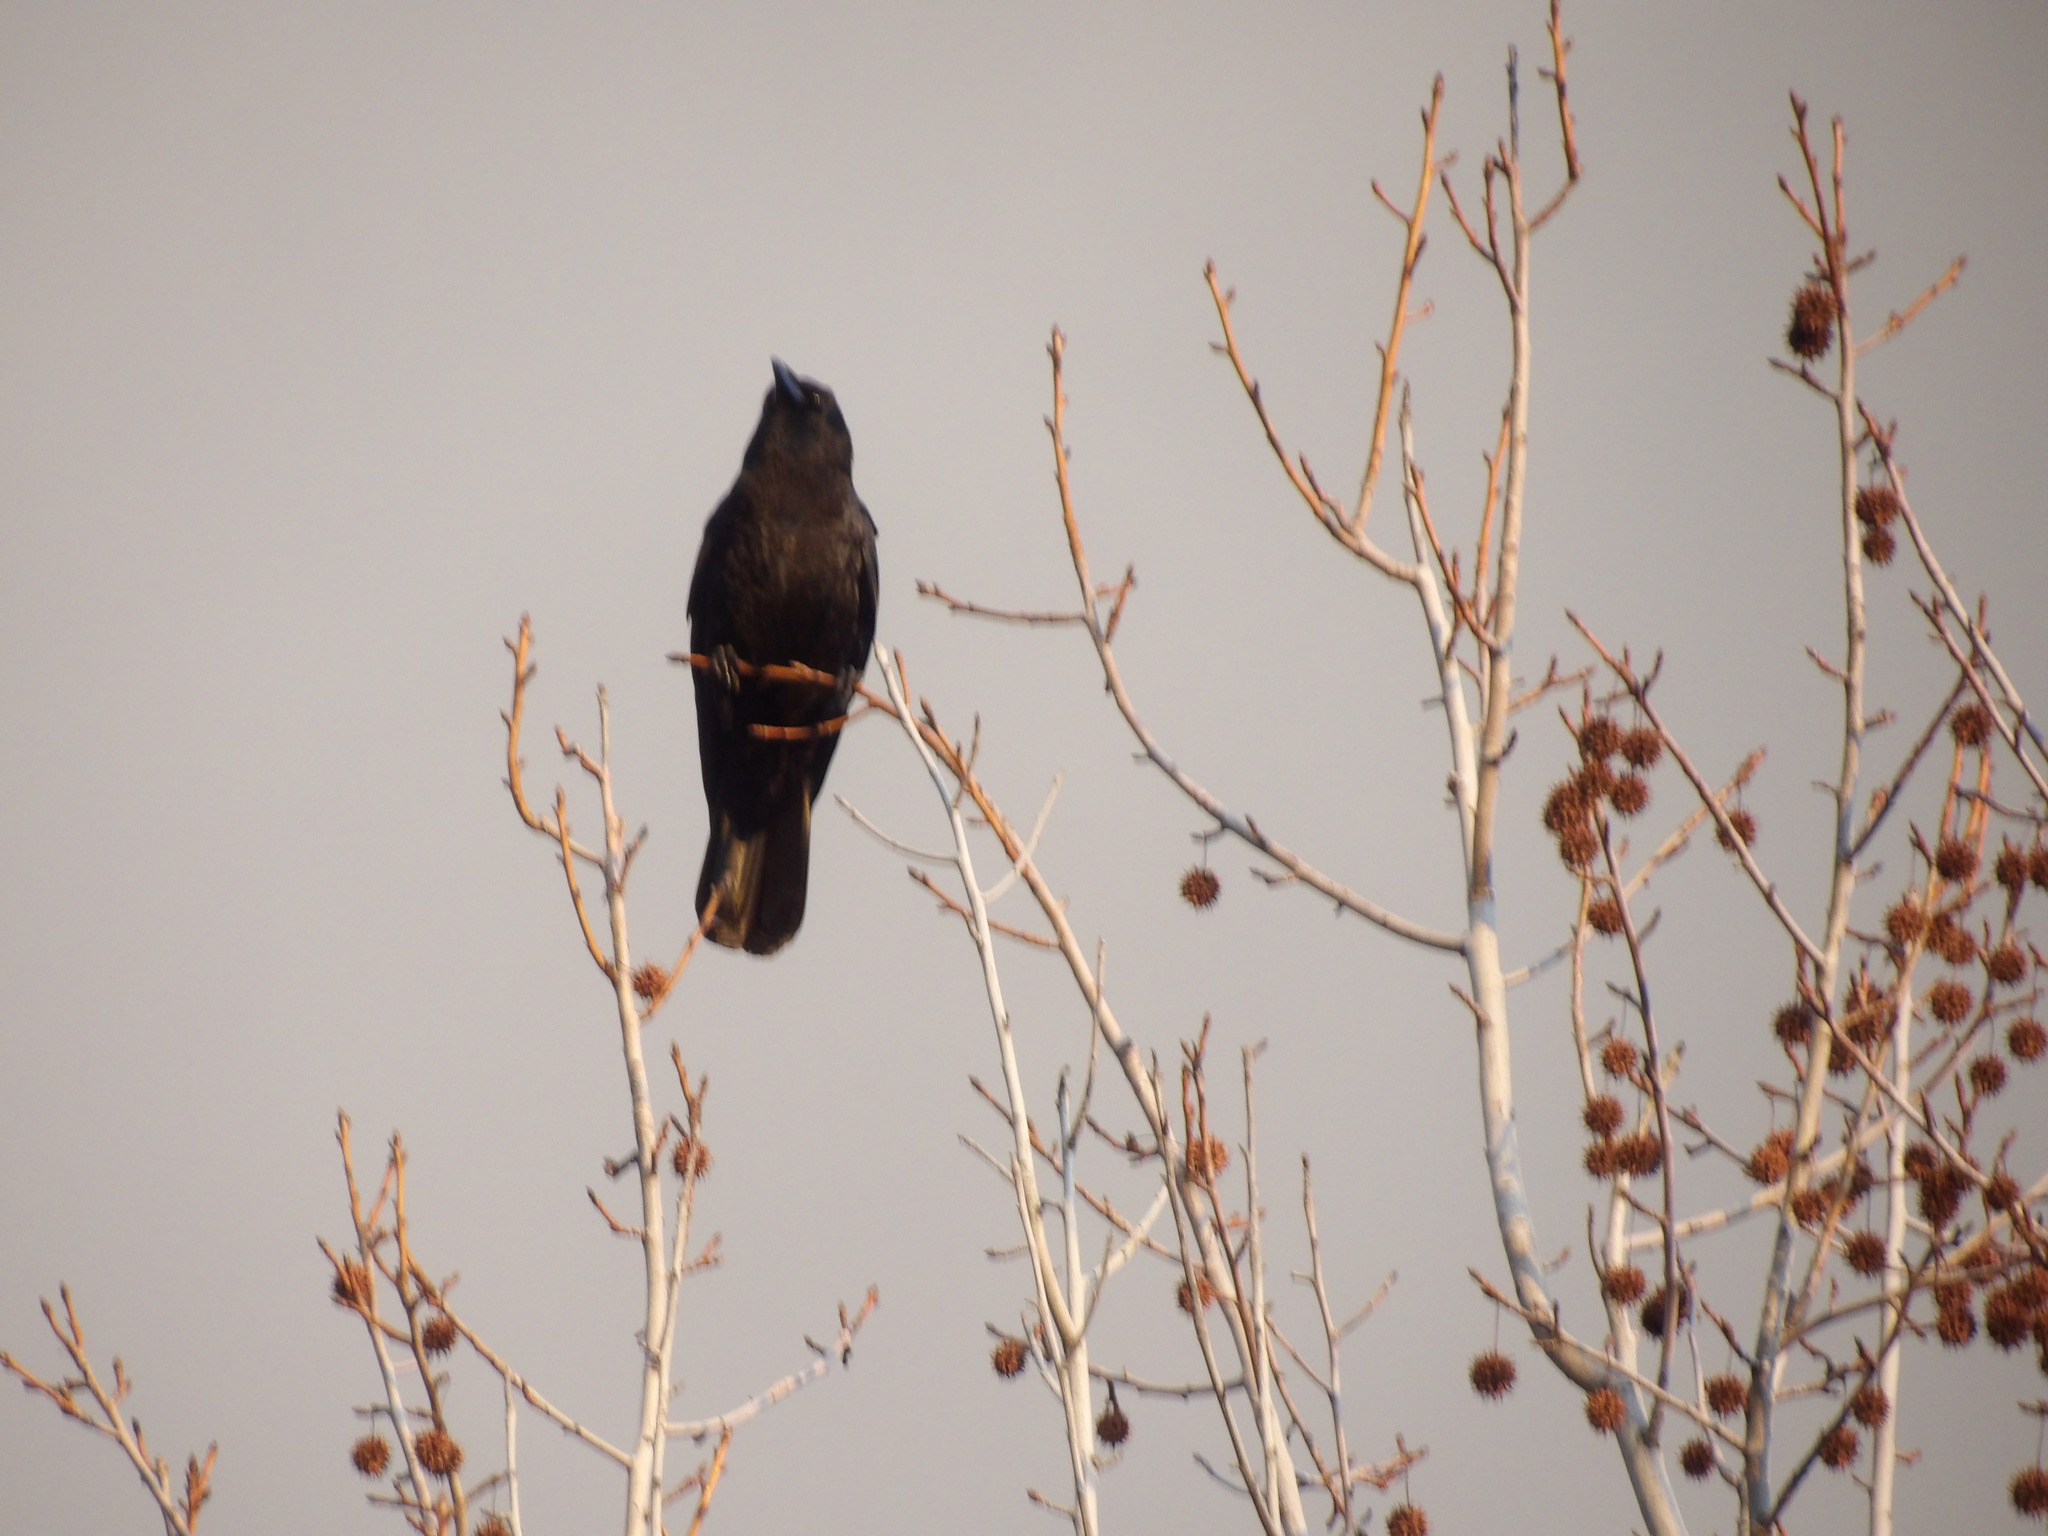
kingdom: Animalia
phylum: Chordata
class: Aves
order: Passeriformes
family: Corvidae
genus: Corvus
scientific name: Corvus brachyrhynchos
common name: American crow
